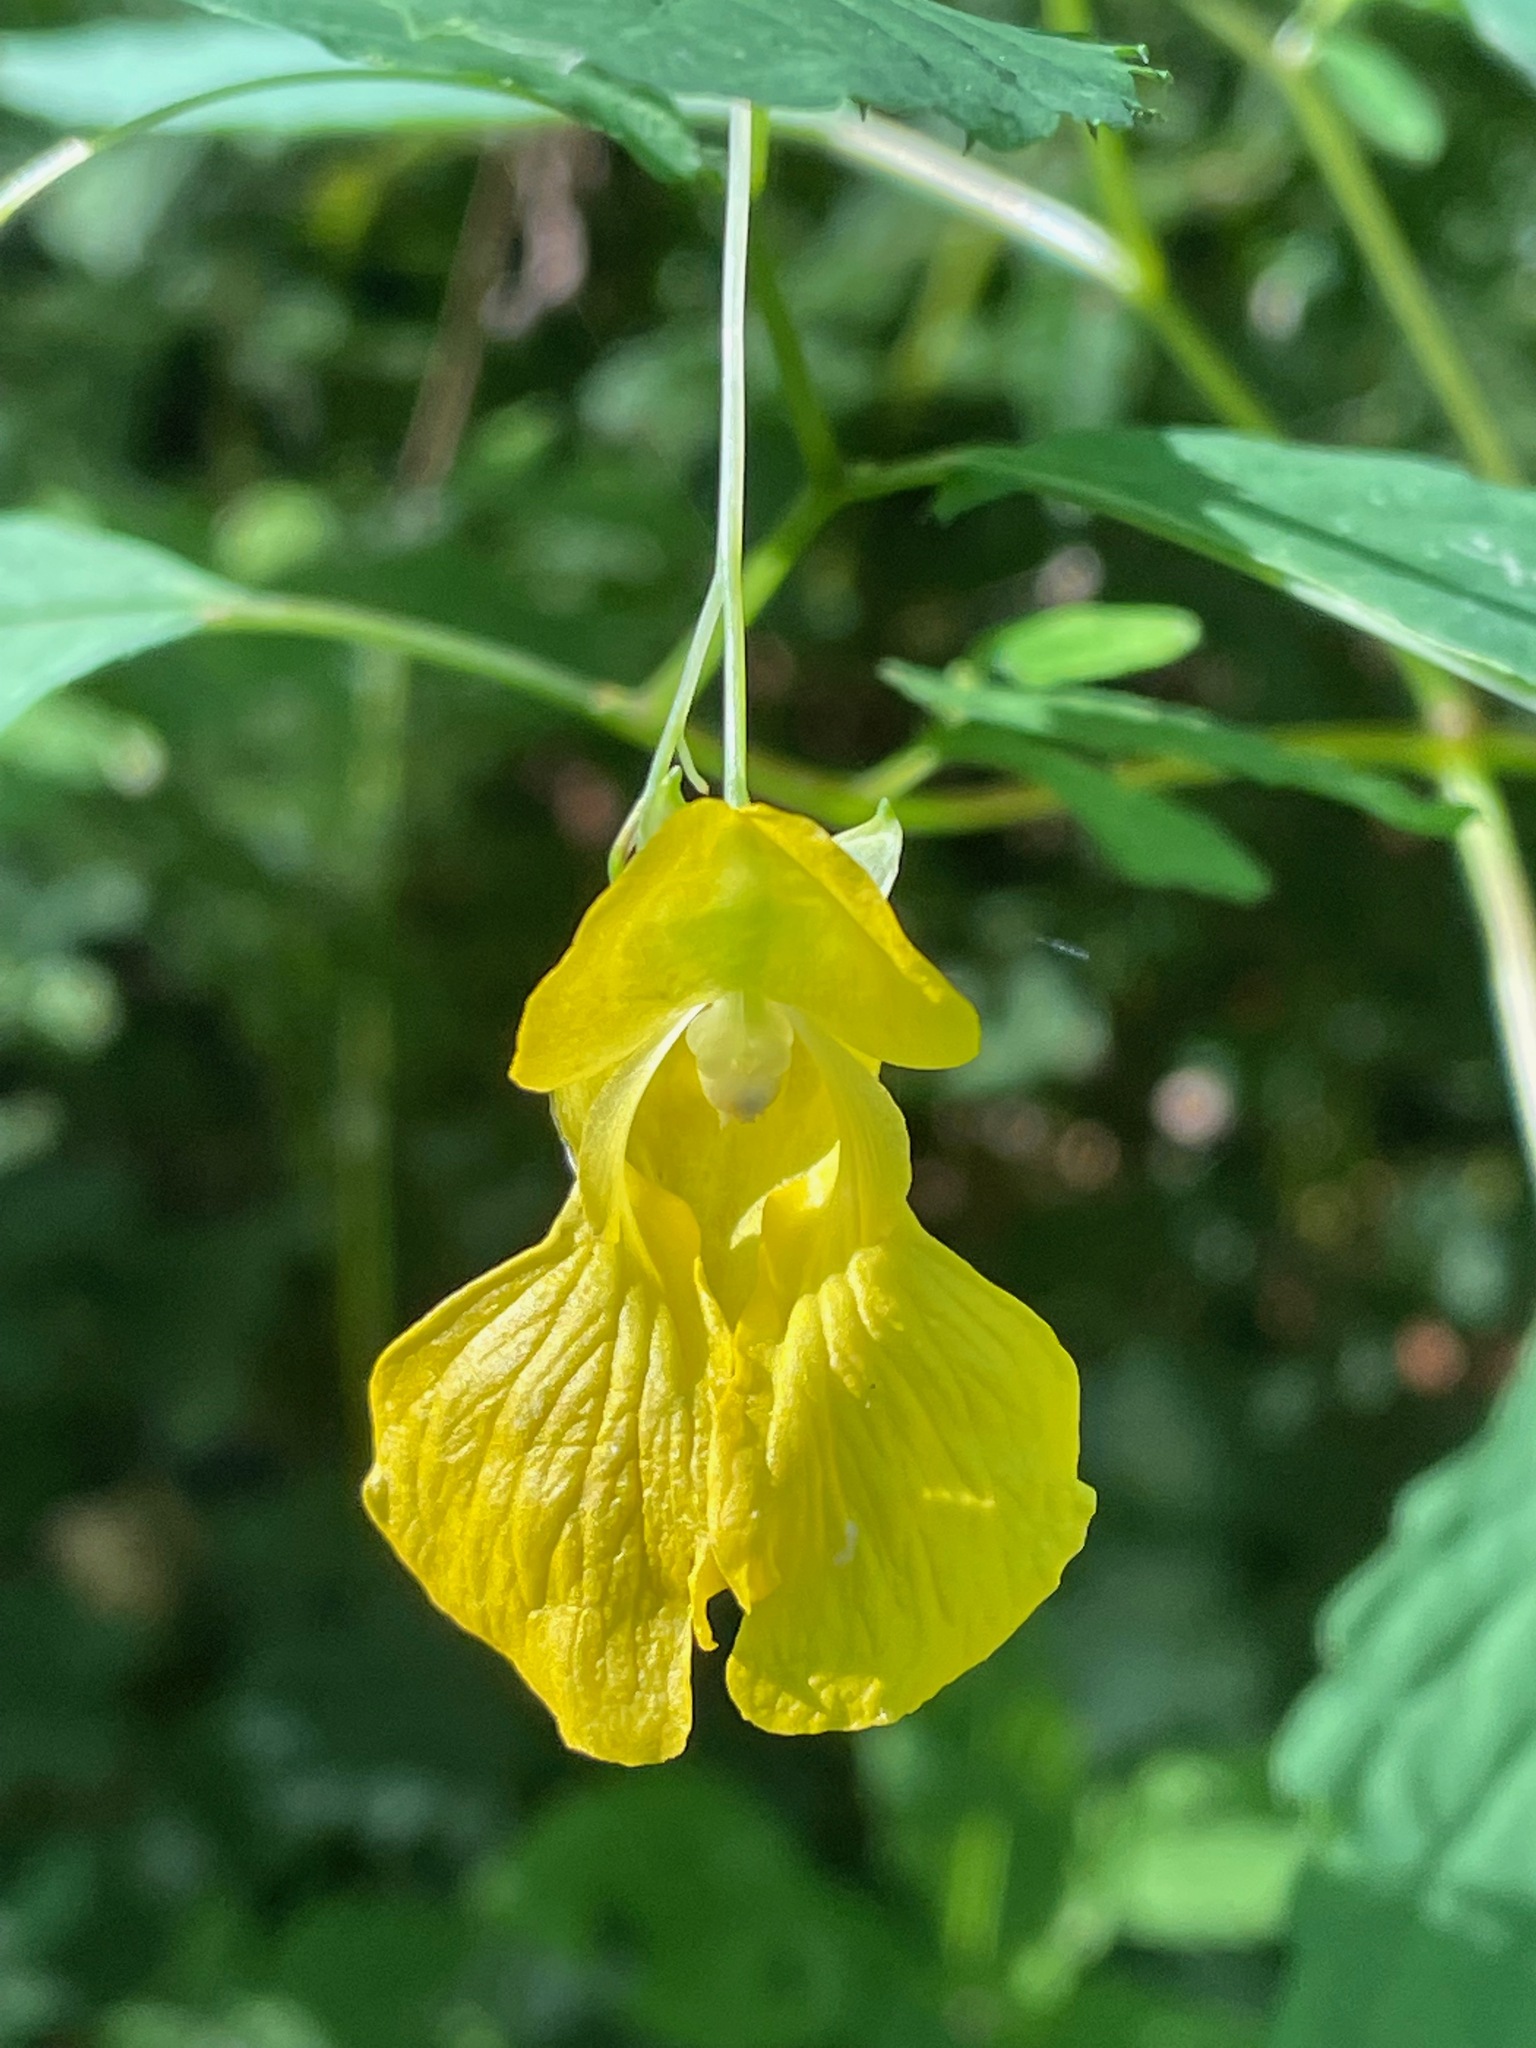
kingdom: Plantae
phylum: Tracheophyta
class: Magnoliopsida
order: Ericales
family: Balsaminaceae
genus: Impatiens
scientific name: Impatiens pallida
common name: Pale snapweed
